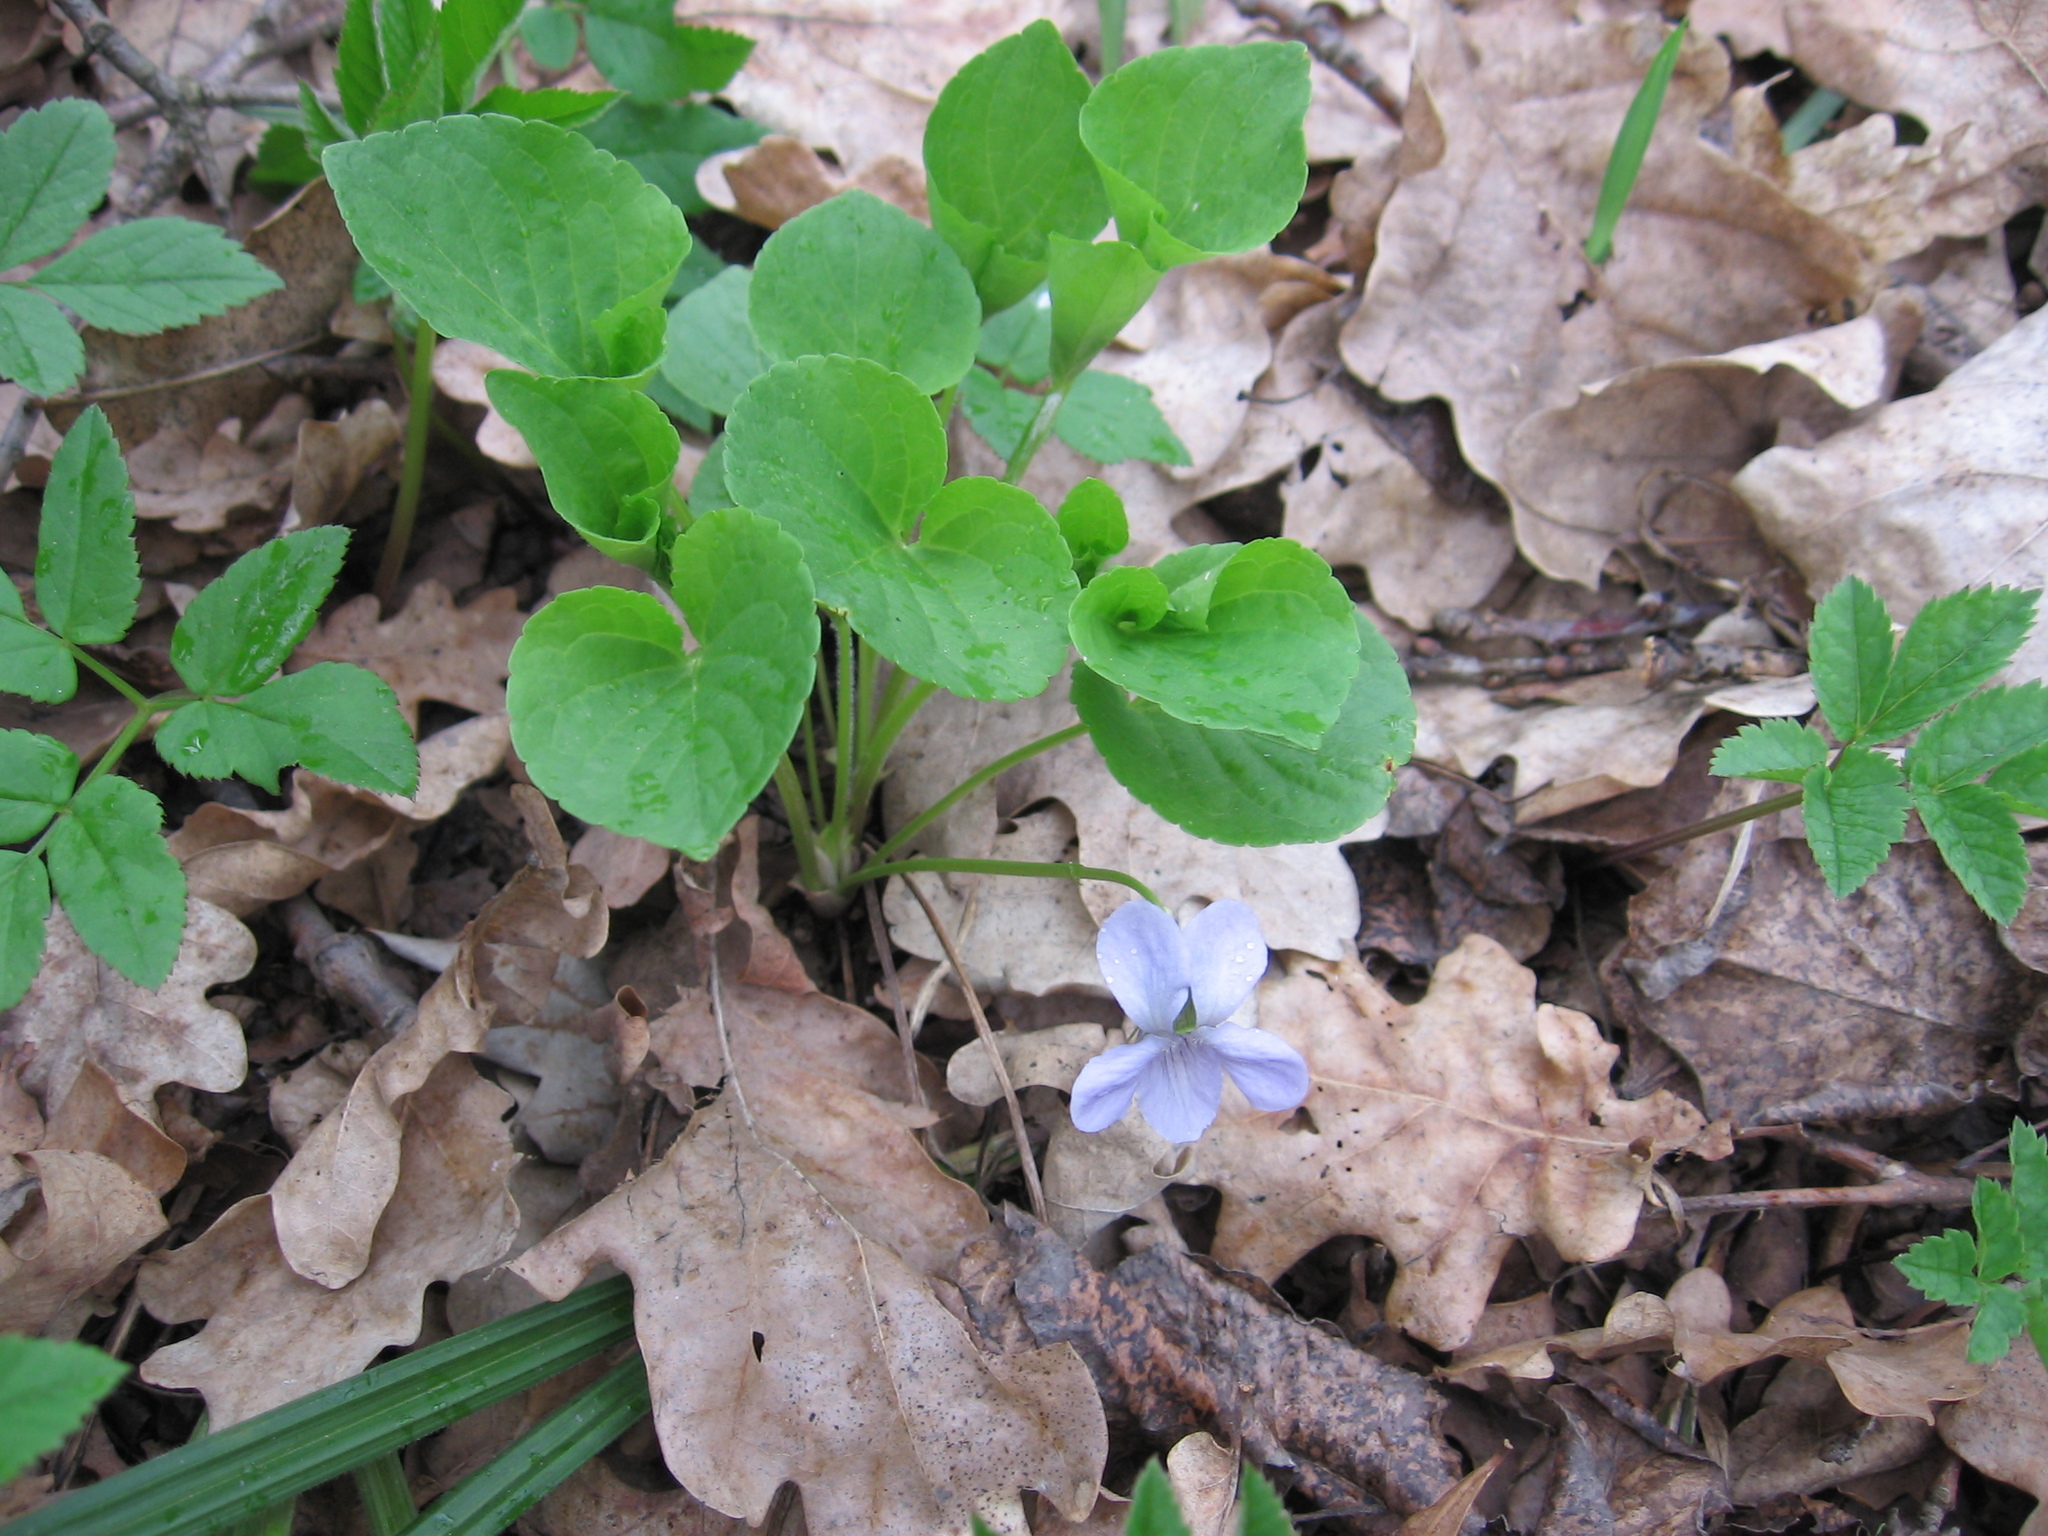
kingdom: Plantae
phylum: Tracheophyta
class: Magnoliopsida
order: Malpighiales
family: Violaceae
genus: Viola
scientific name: Viola mirabilis
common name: Wonder violet
